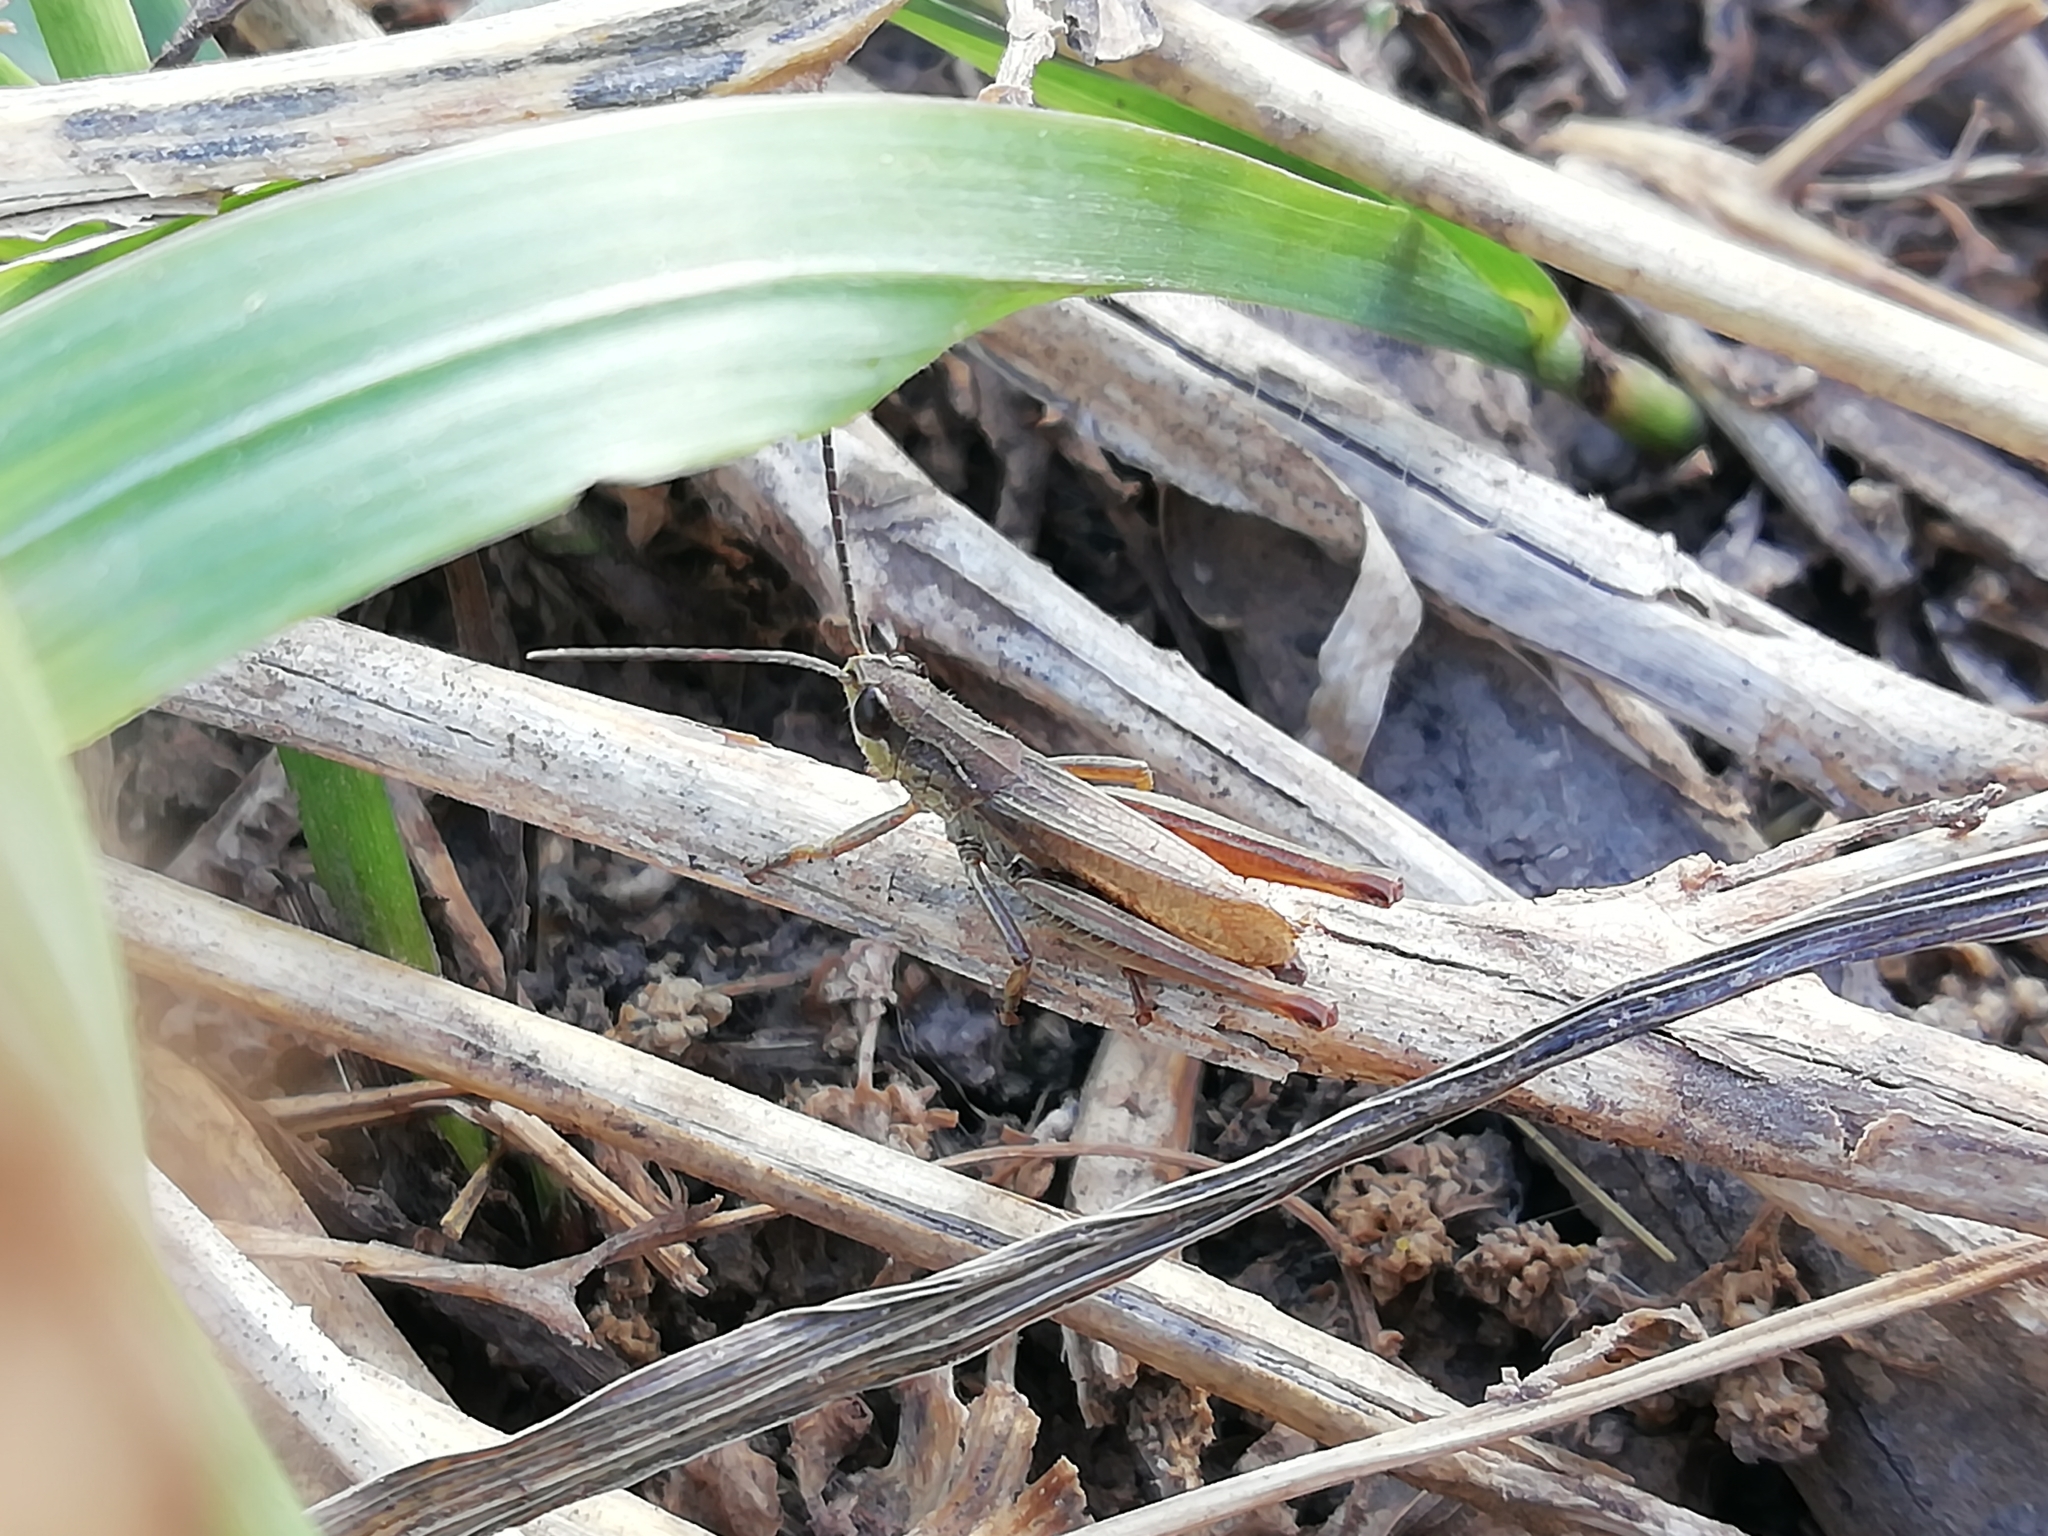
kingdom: Animalia
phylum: Arthropoda
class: Insecta
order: Orthoptera
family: Acrididae
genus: Chorthippus
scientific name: Chorthippus fallax
